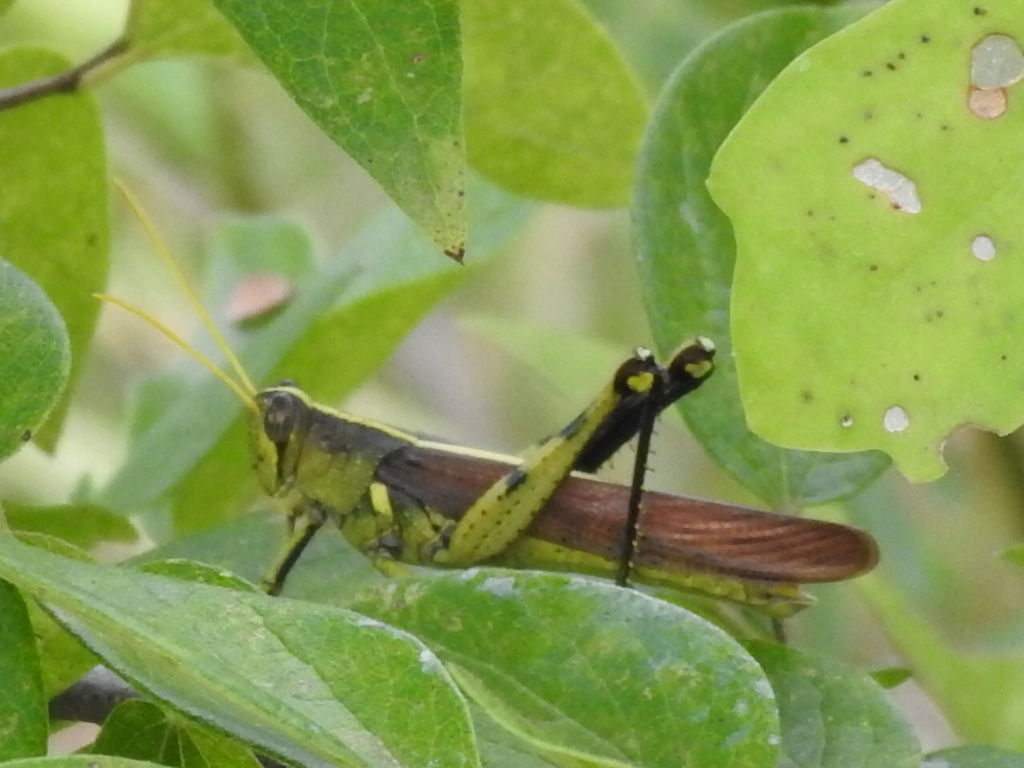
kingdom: Animalia
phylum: Arthropoda
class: Insecta
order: Orthoptera
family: Acrididae
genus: Schistocerca
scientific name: Schistocerca obscura
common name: Obscure bird grasshopper
